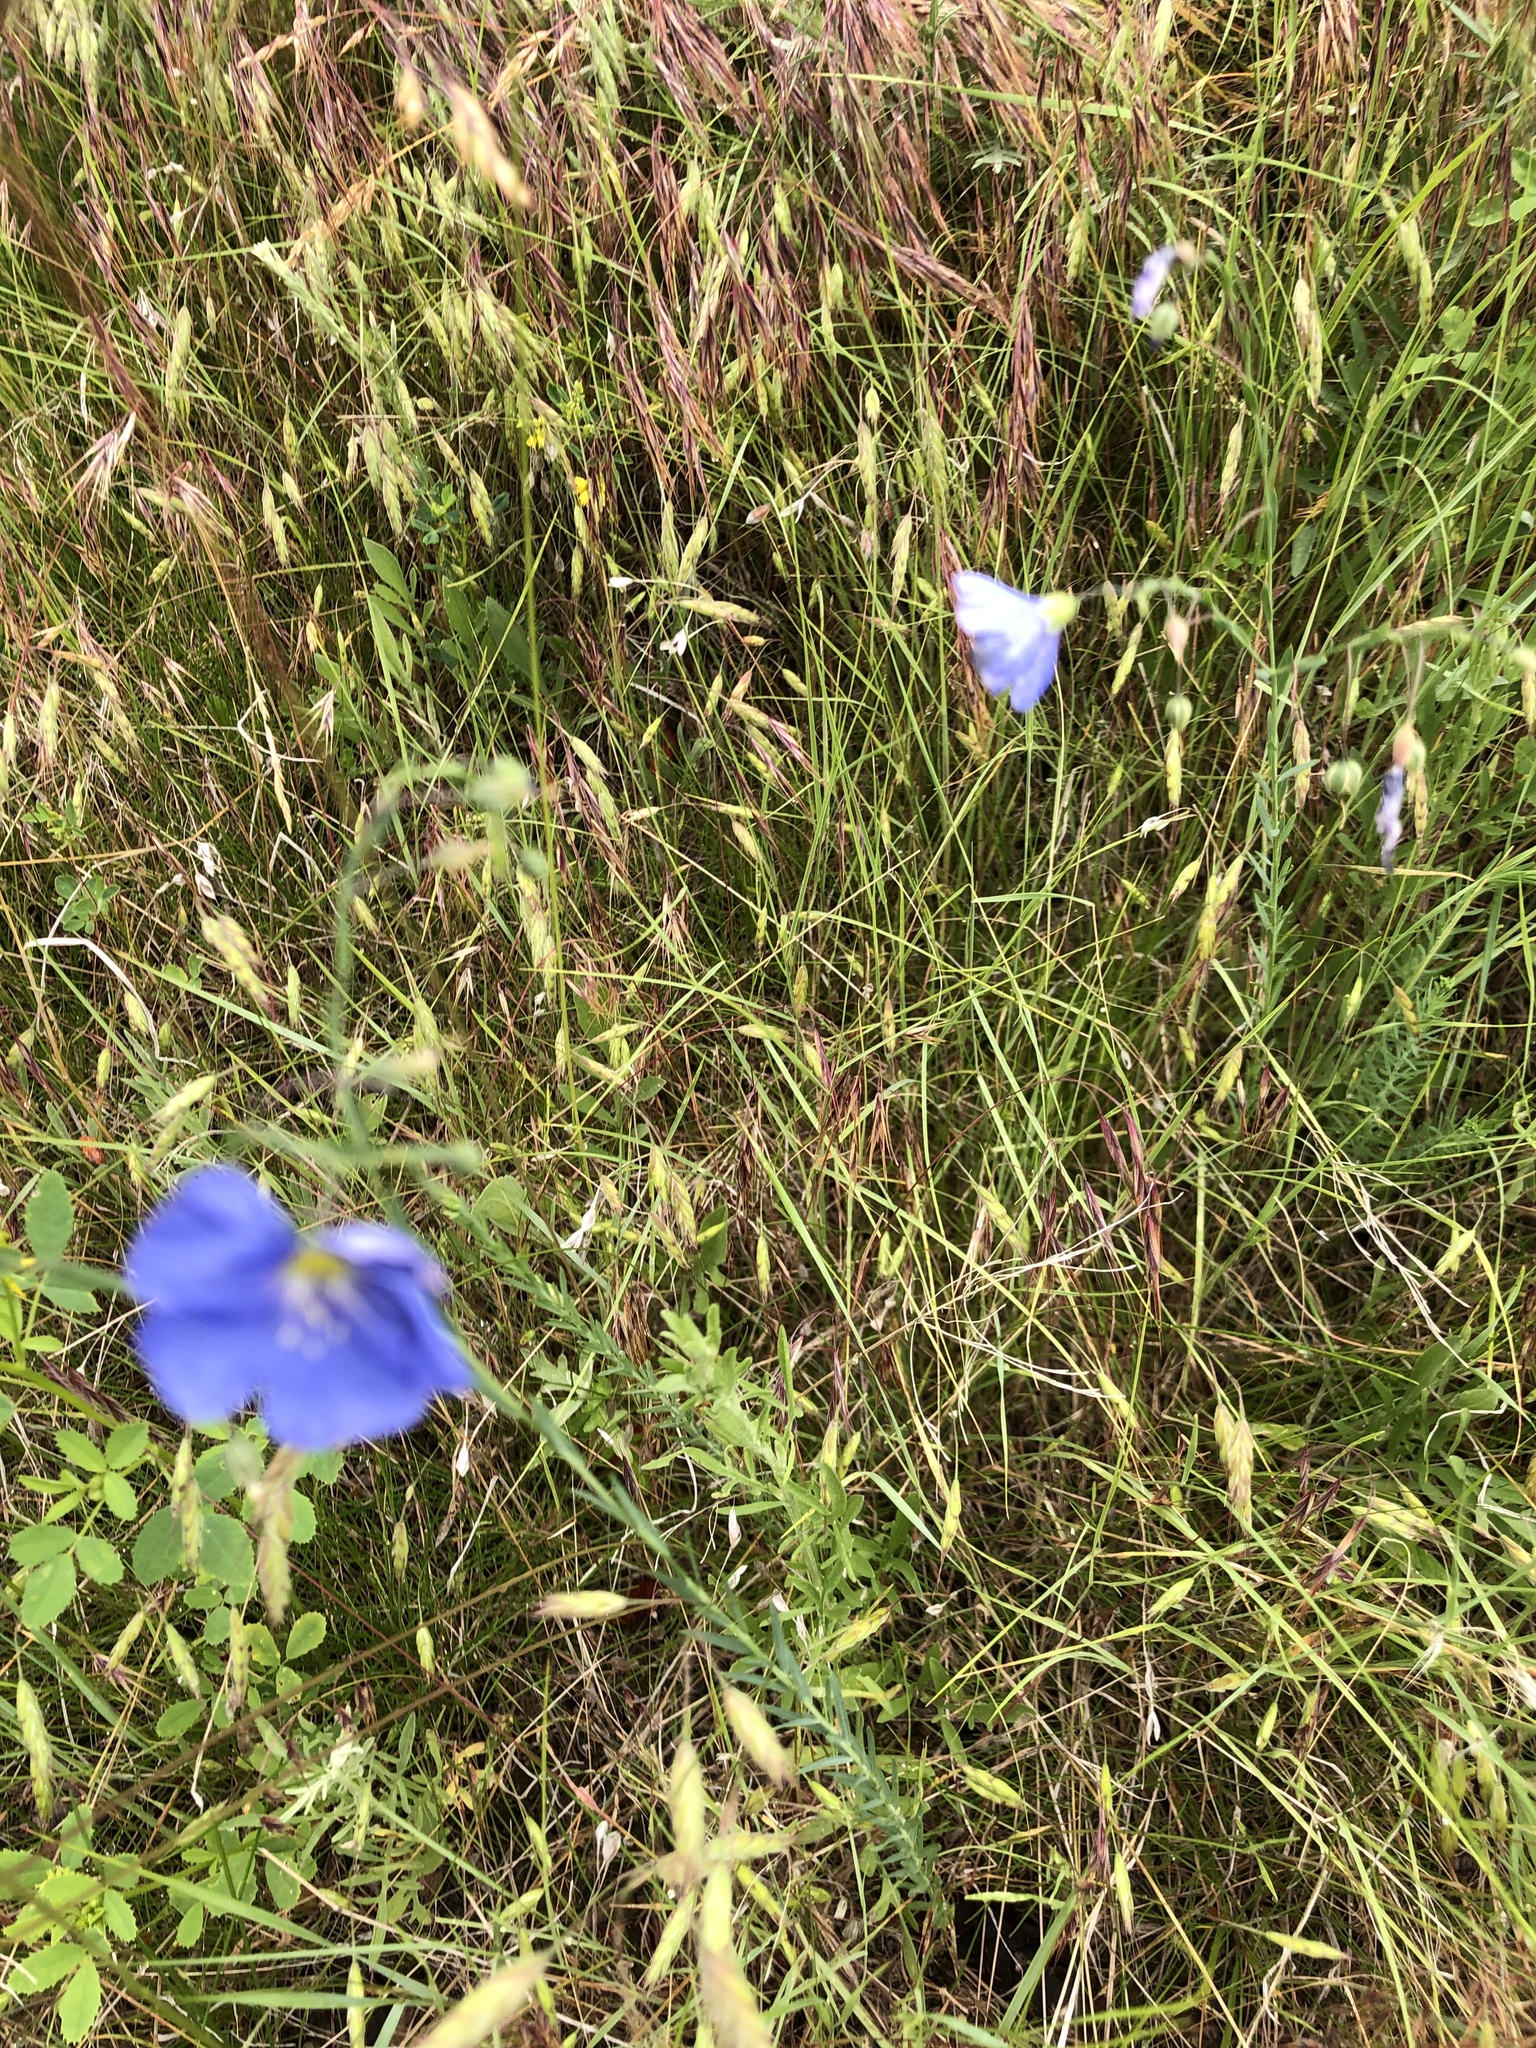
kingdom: Plantae
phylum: Tracheophyta
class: Magnoliopsida
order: Malpighiales
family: Linaceae
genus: Linum
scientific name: Linum lewisii
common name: Prairie flax
